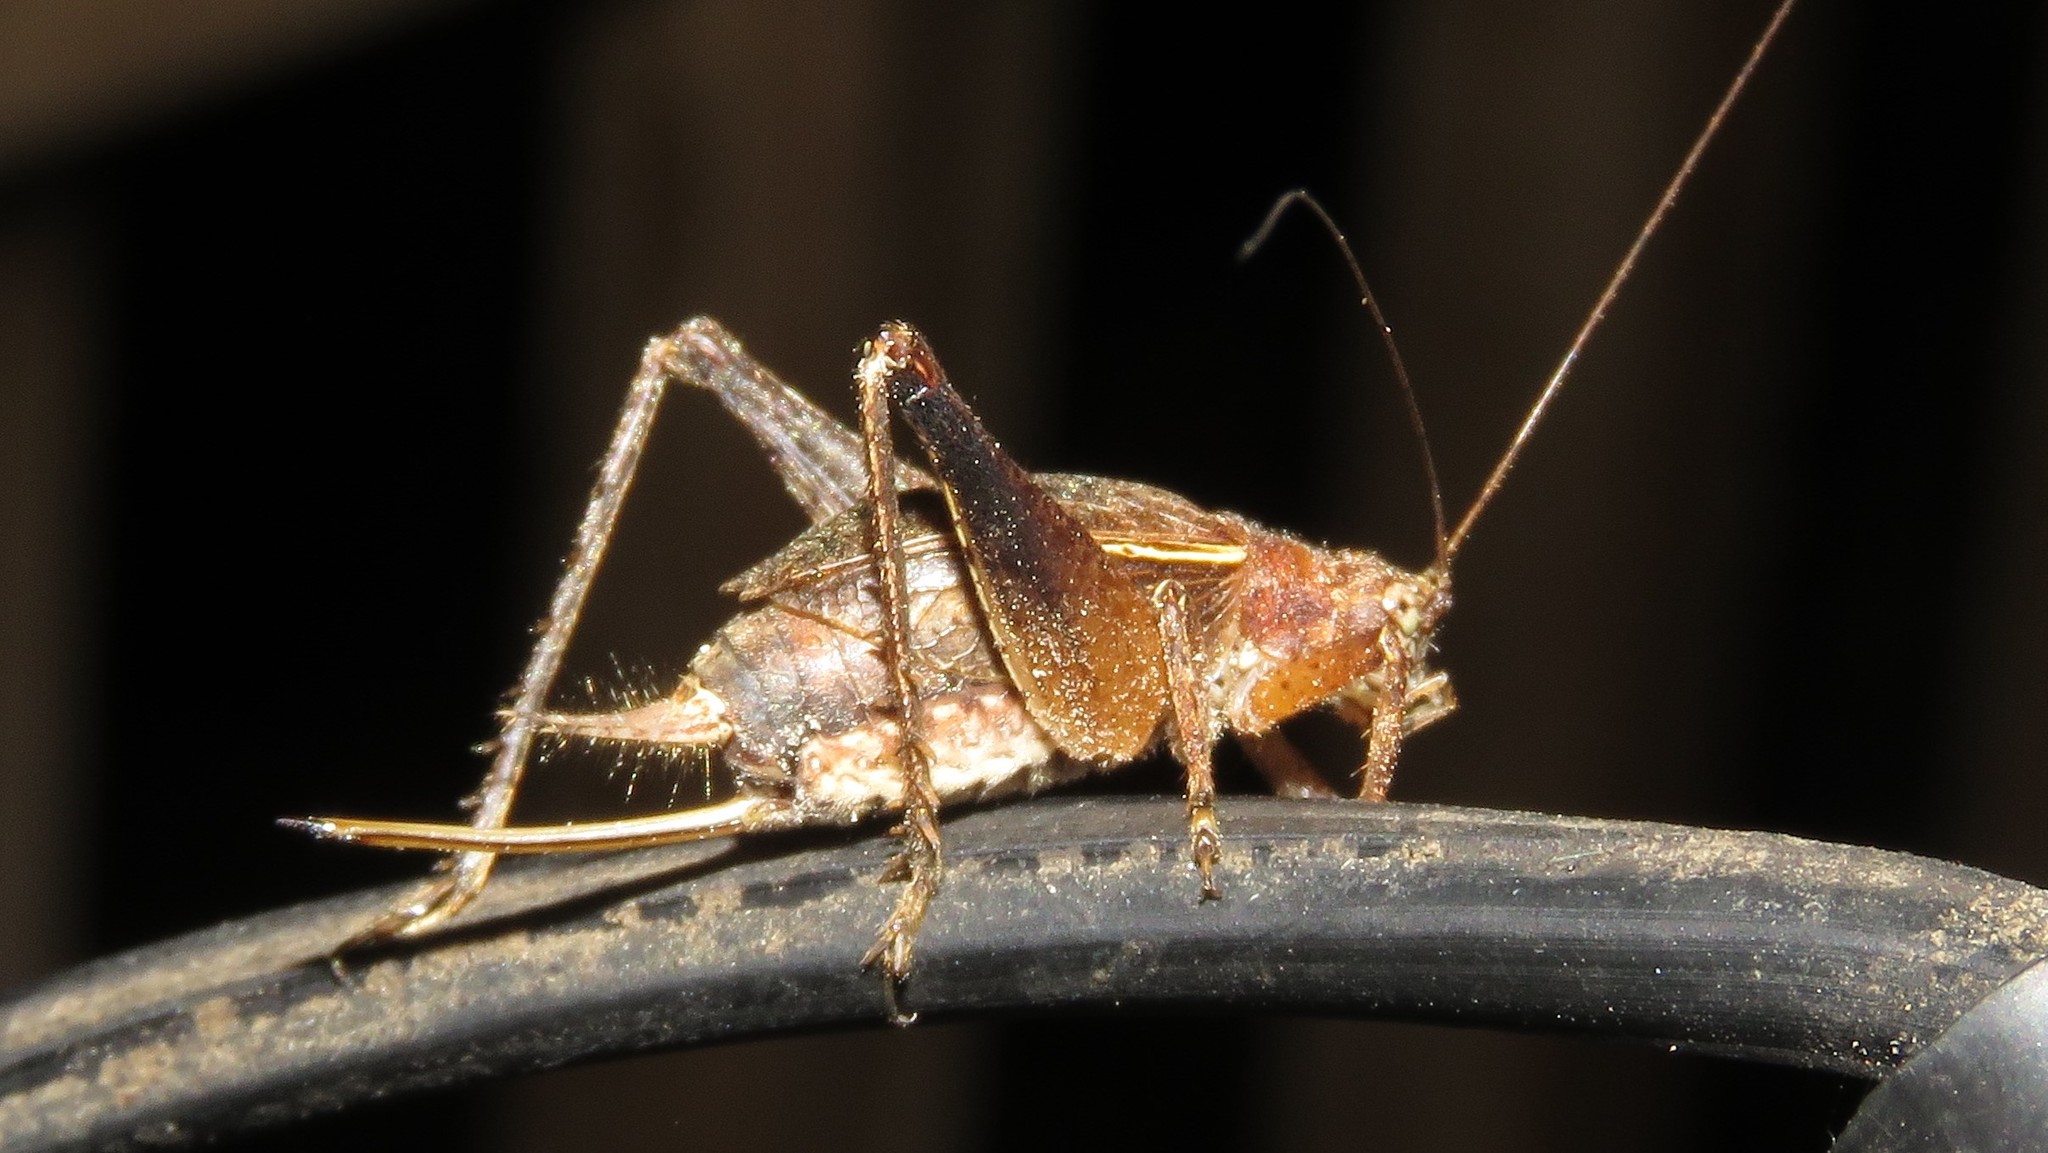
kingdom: Animalia
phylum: Arthropoda
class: Insecta
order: Orthoptera
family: Gryllidae
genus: Hapithus
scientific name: Hapithus agitator
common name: Restless bush cricket
